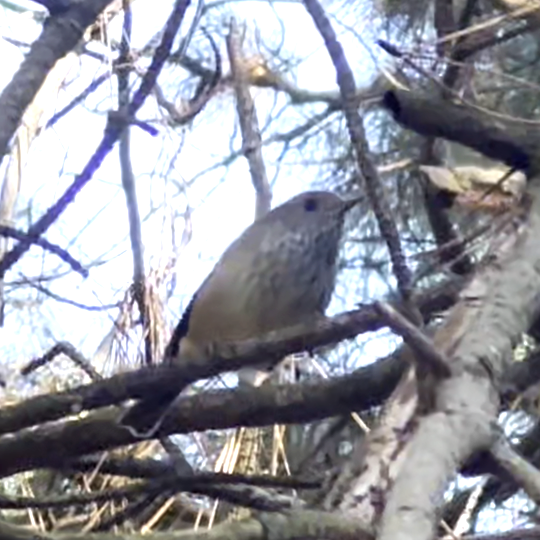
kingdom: Animalia
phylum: Chordata
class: Aves
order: Passeriformes
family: Acanthizidae
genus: Acanthiza
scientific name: Acanthiza pusilla
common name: Brown thornbill
